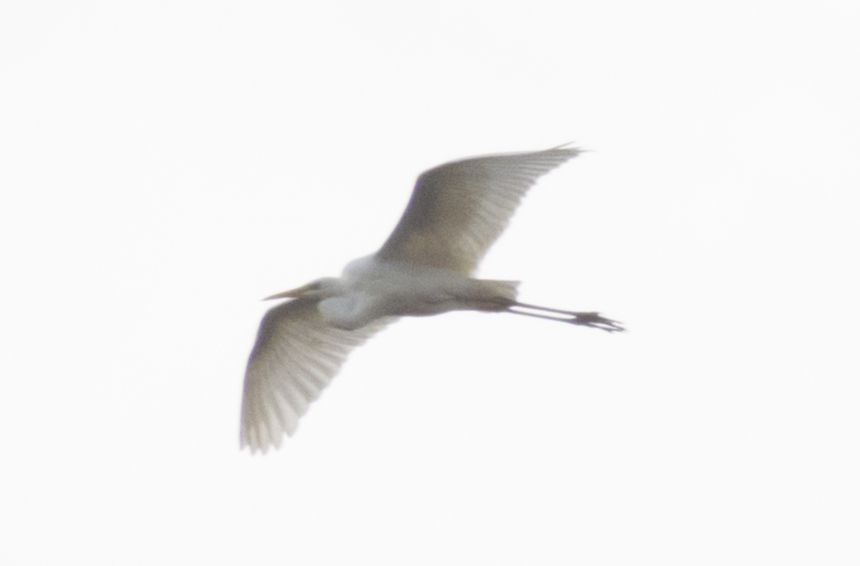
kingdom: Animalia
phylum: Chordata
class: Aves
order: Pelecaniformes
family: Ardeidae
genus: Ardea
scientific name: Ardea alba
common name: Great egret
